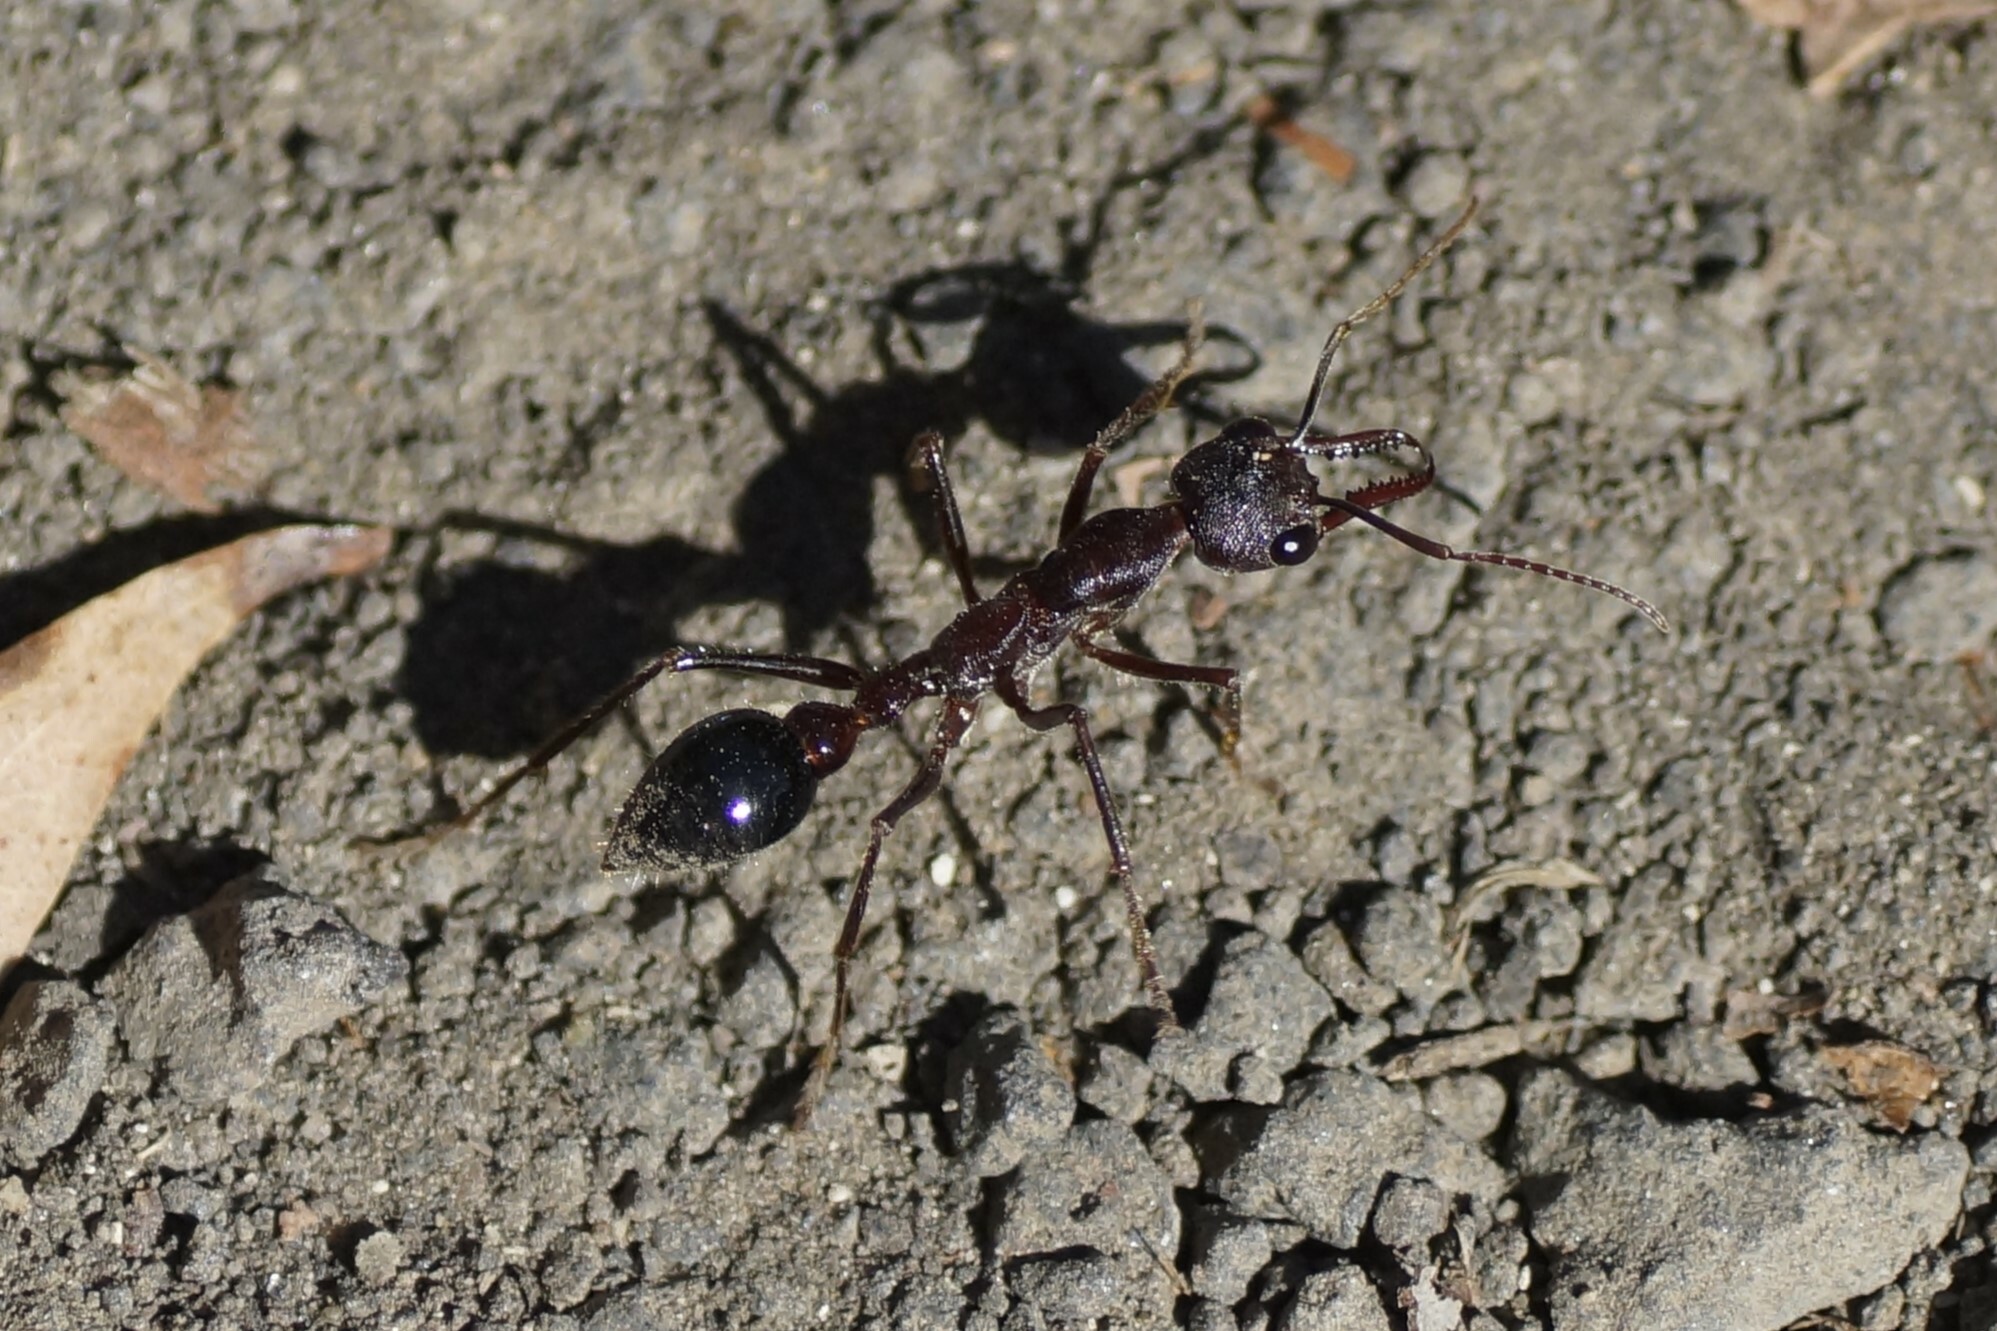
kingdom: Animalia
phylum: Arthropoda
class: Insecta
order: Hymenoptera
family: Formicidae
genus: Myrmecia
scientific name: Myrmecia forficata
